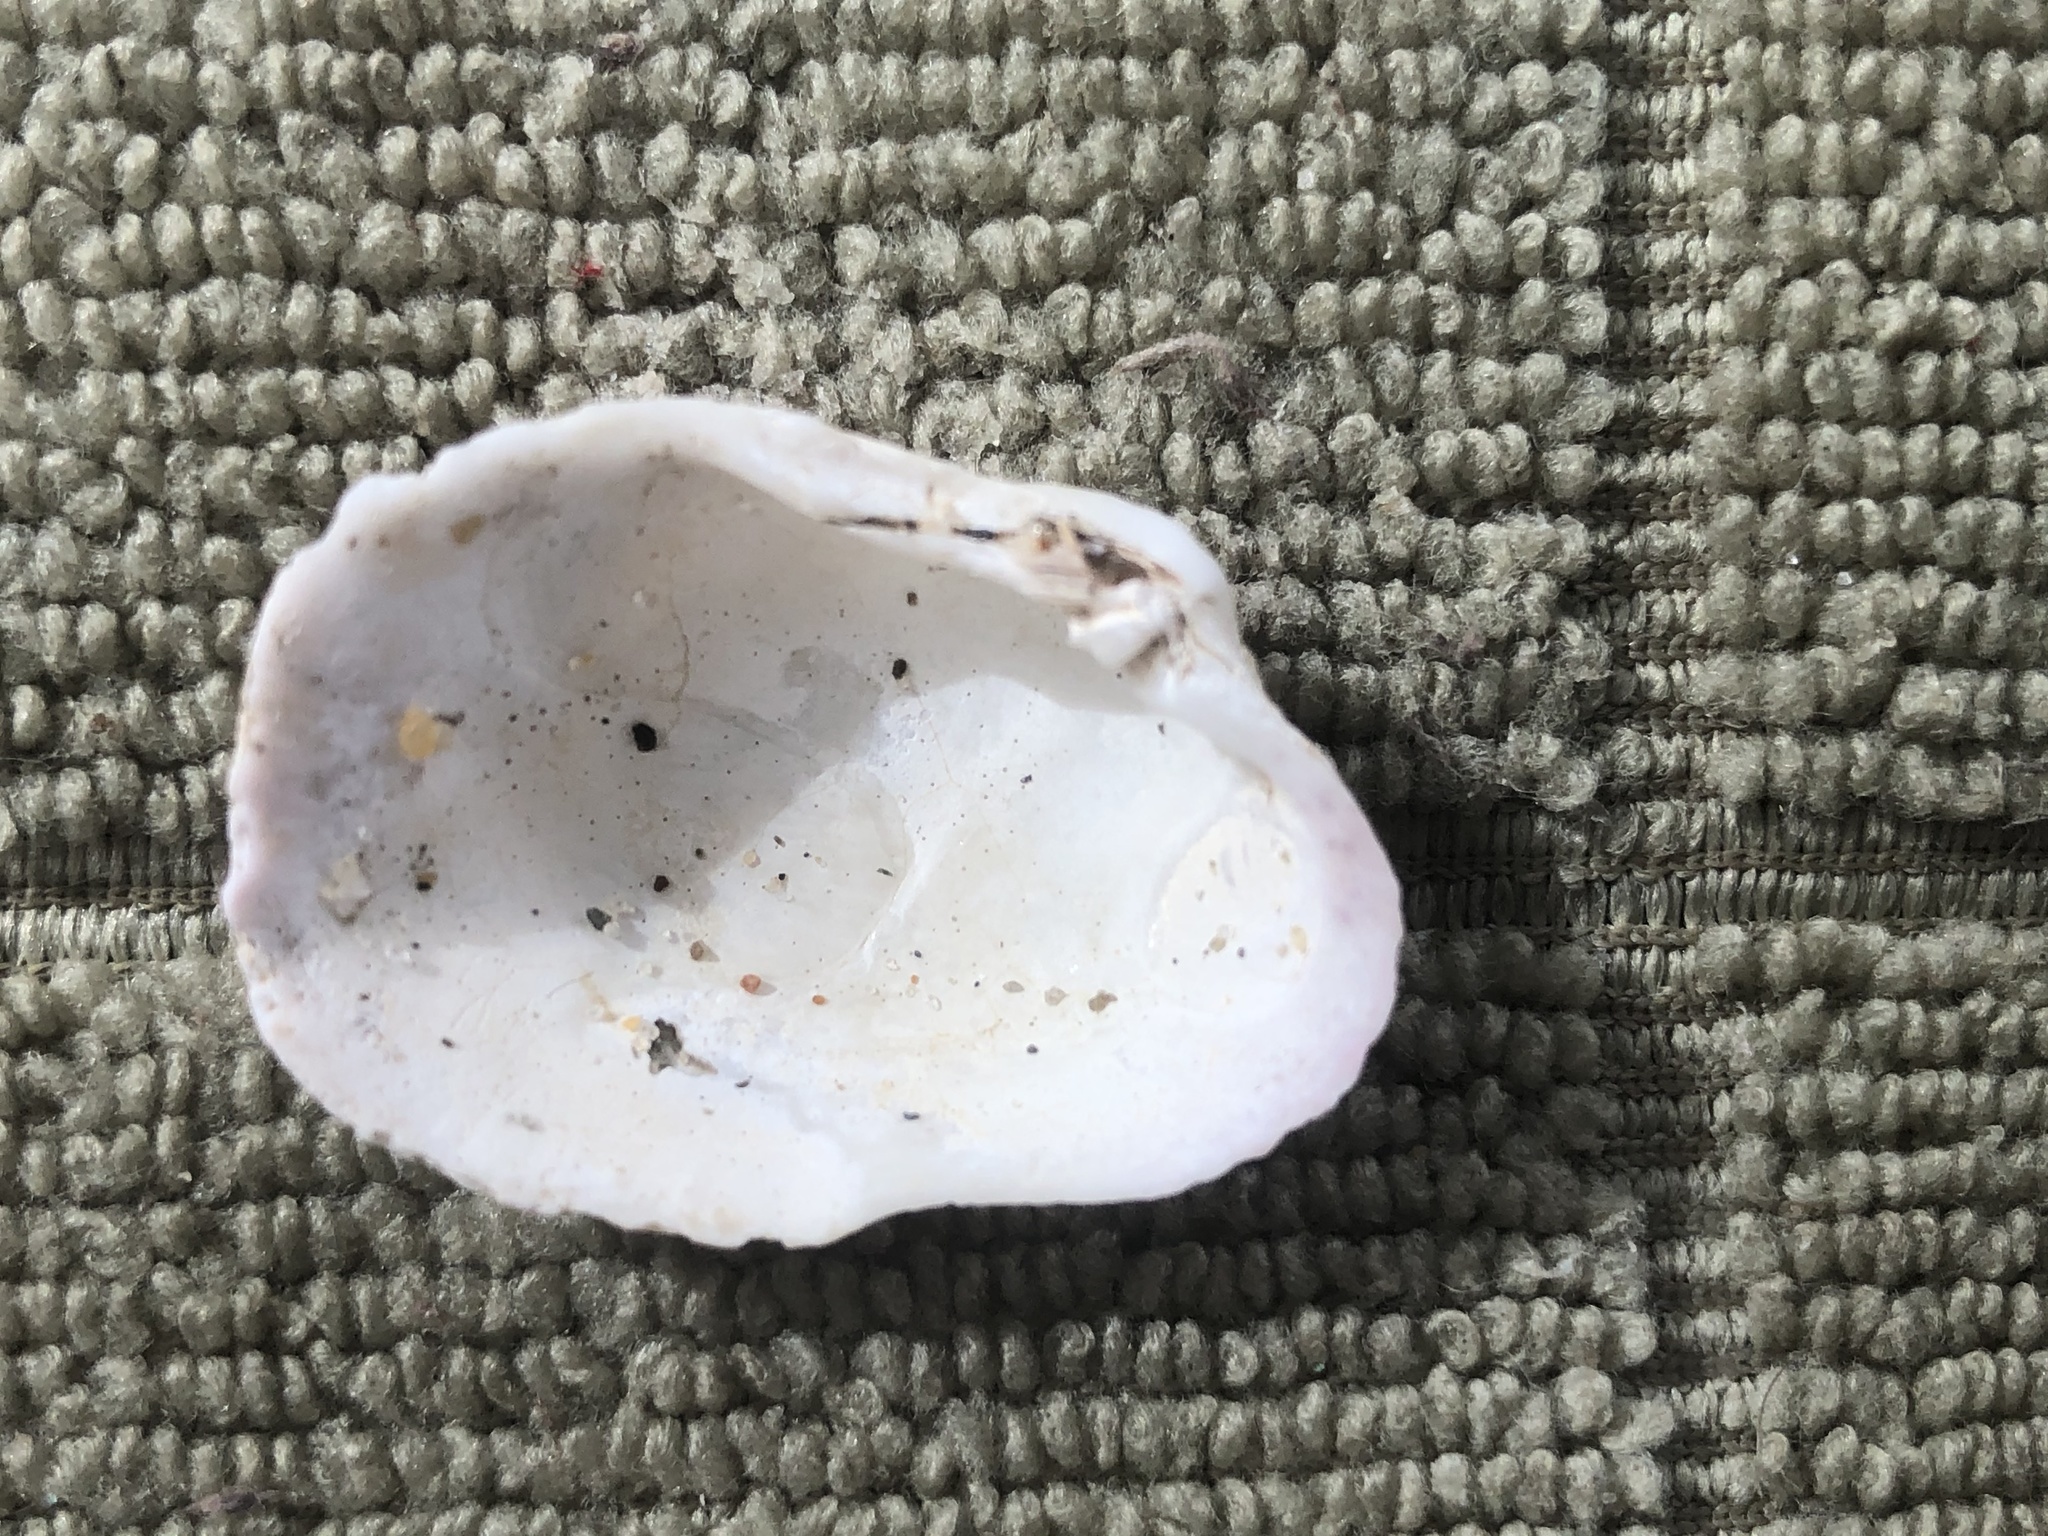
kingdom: Animalia
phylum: Mollusca
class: Bivalvia
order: Venerida
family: Veneridae
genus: Petricola
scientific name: Petricola carditoides
